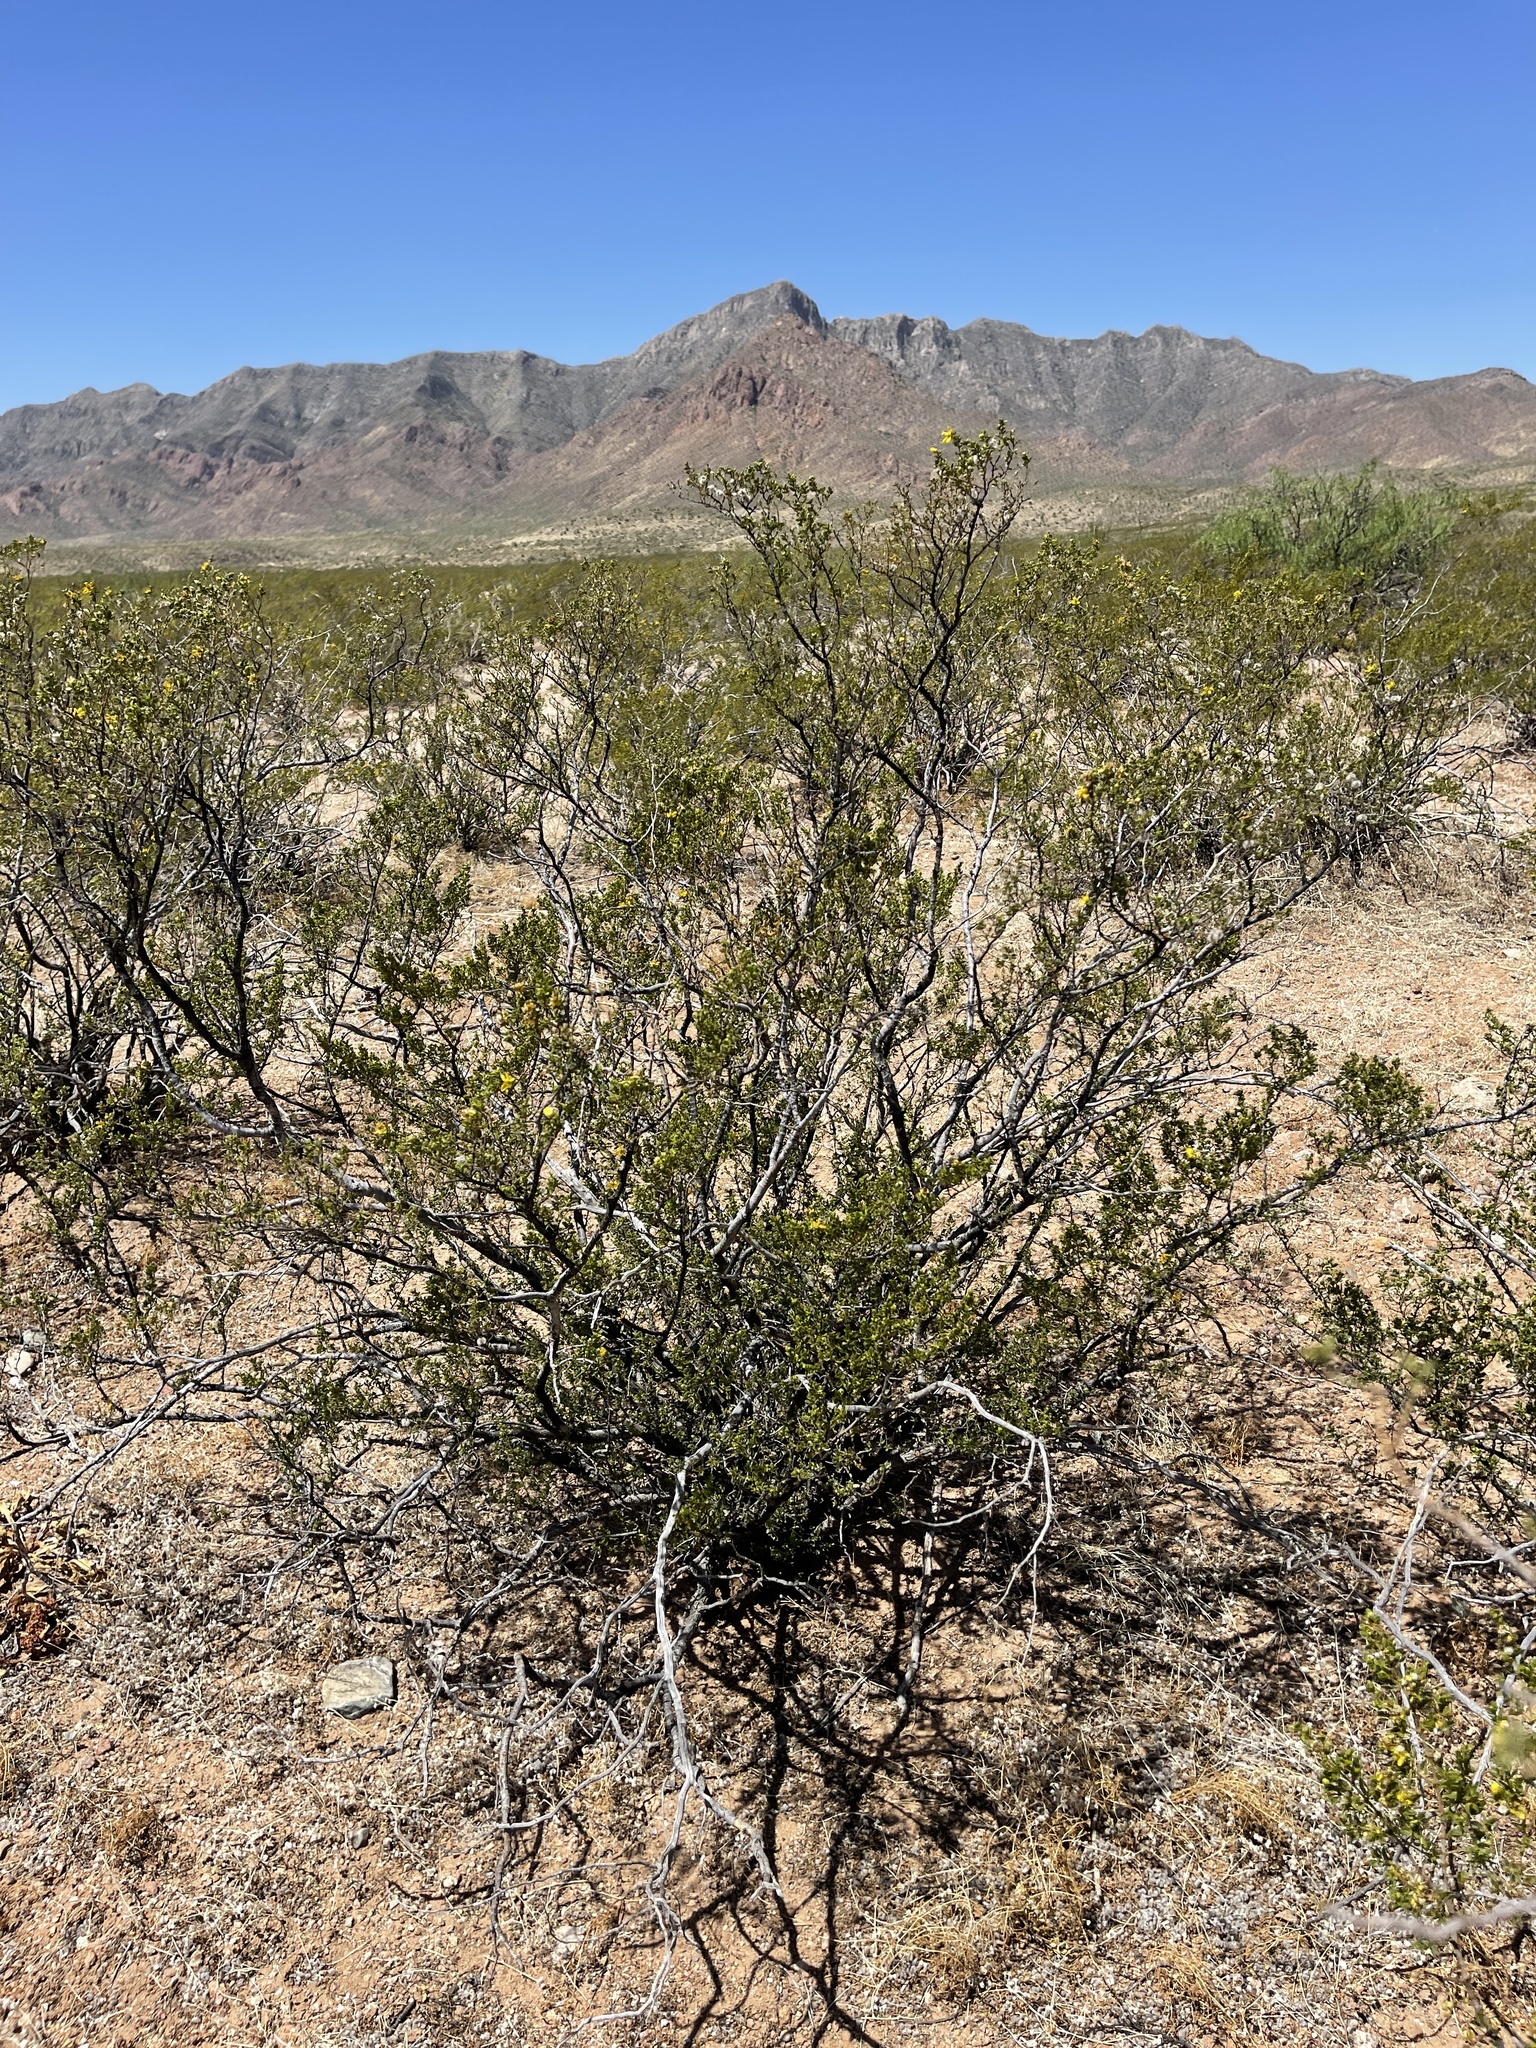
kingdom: Plantae
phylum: Tracheophyta
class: Magnoliopsida
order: Zygophyllales
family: Zygophyllaceae
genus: Larrea
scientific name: Larrea tridentata
